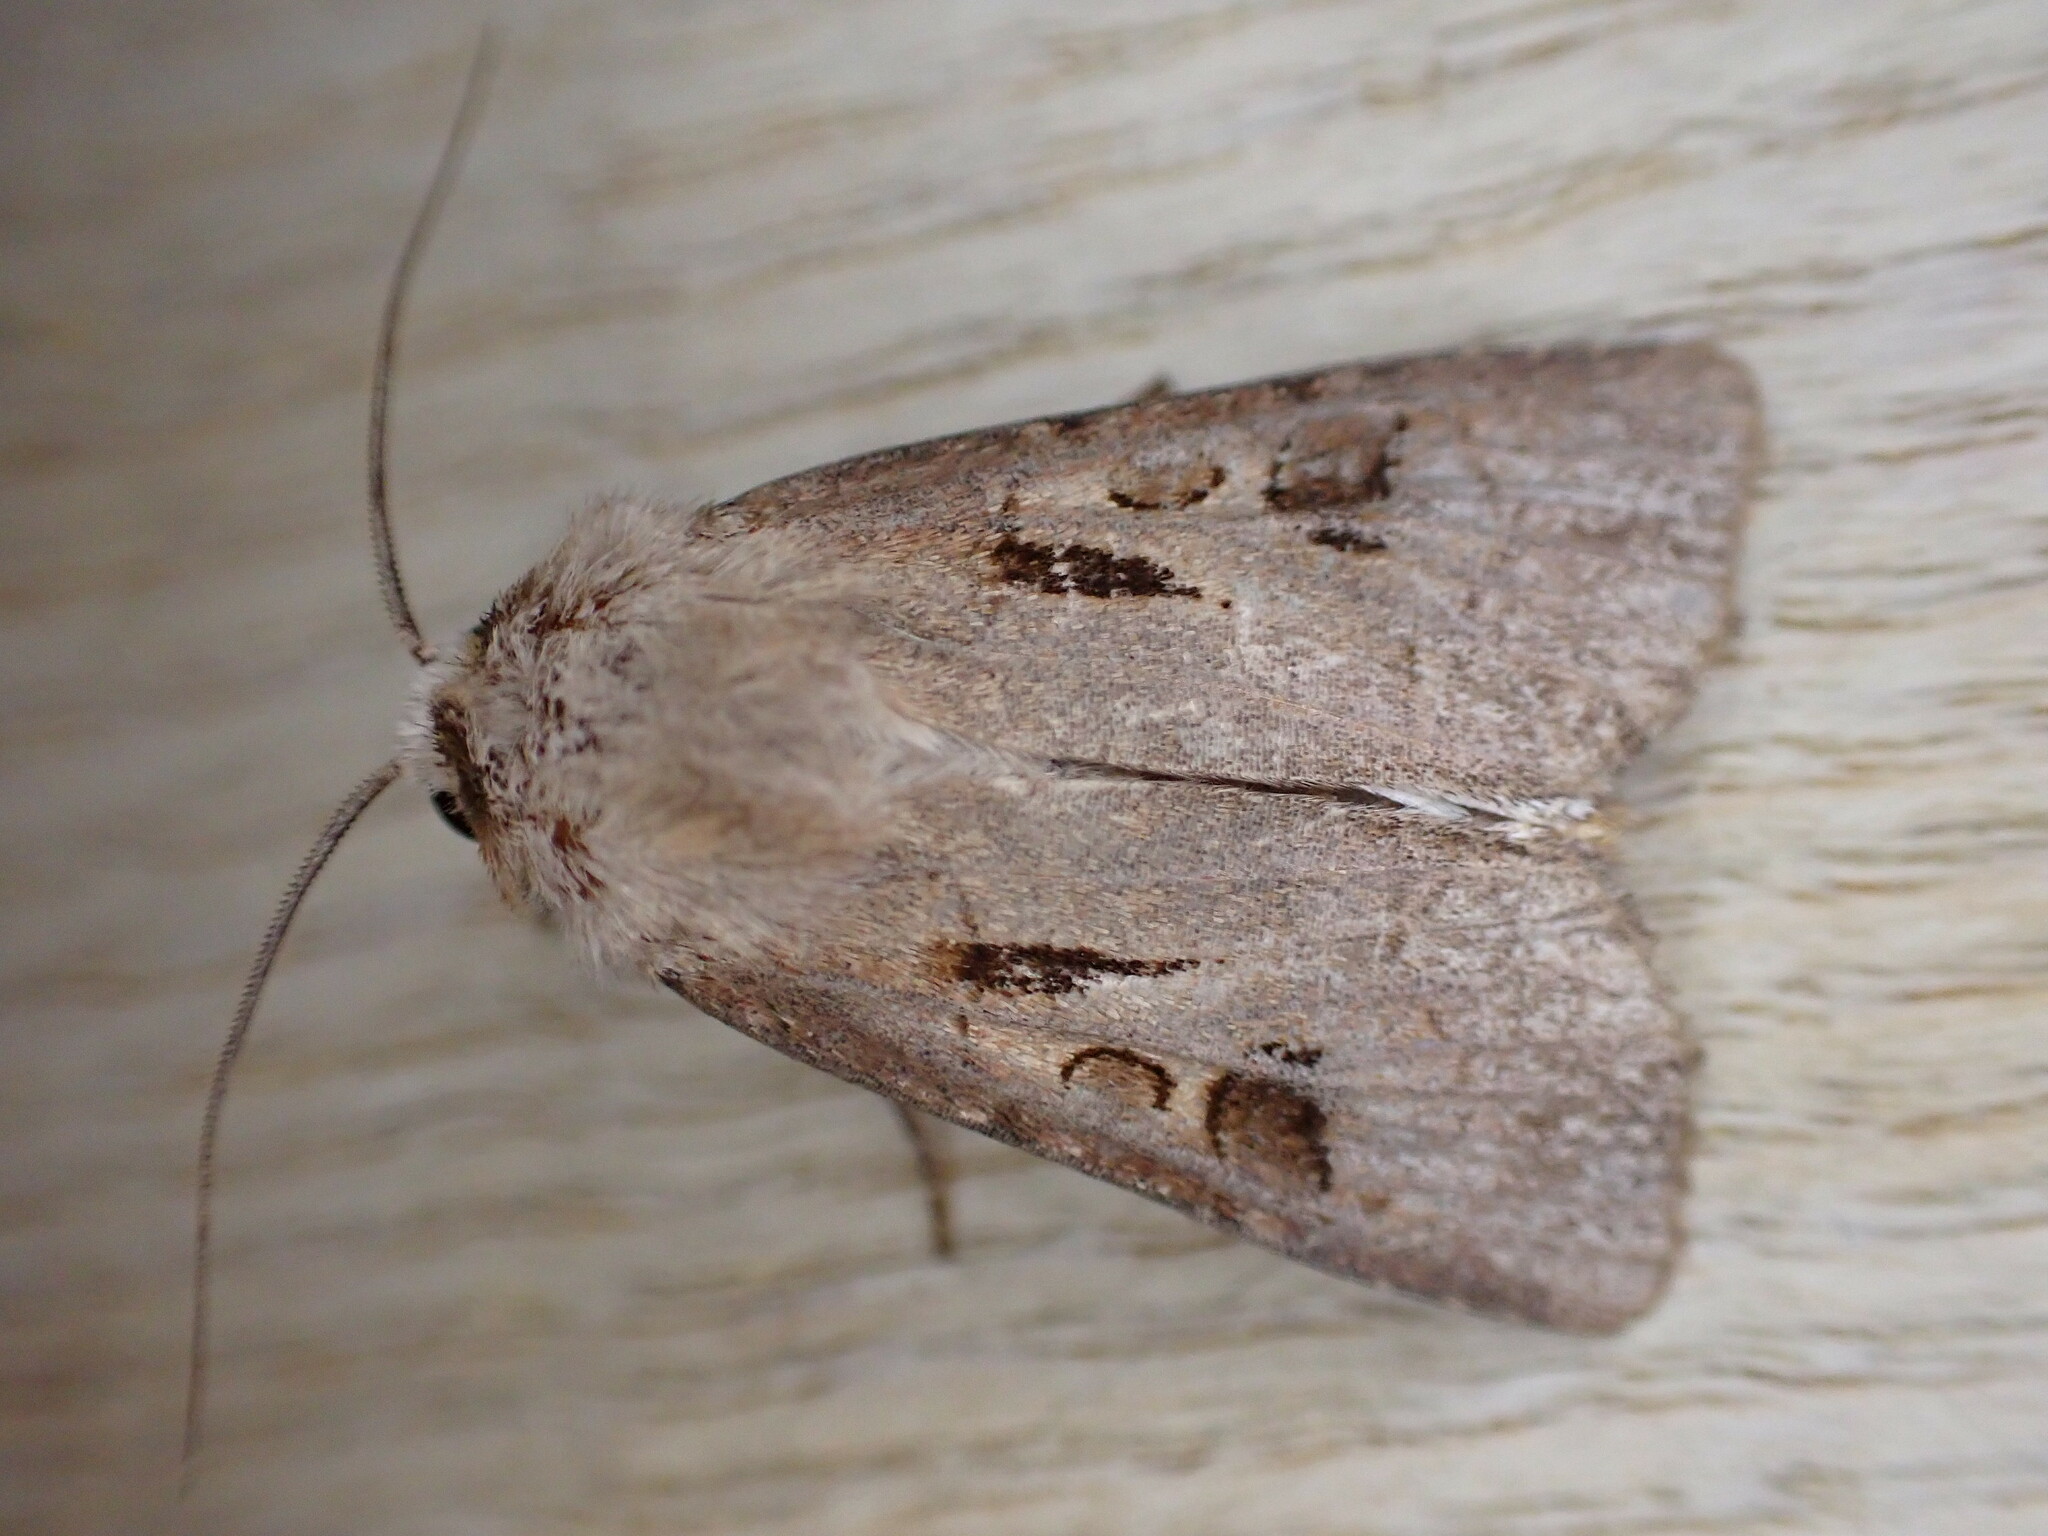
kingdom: Animalia
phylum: Arthropoda
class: Insecta
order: Lepidoptera
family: Noctuidae
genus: Agrotis
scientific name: Agrotis exclamationis
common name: Heart and dart
